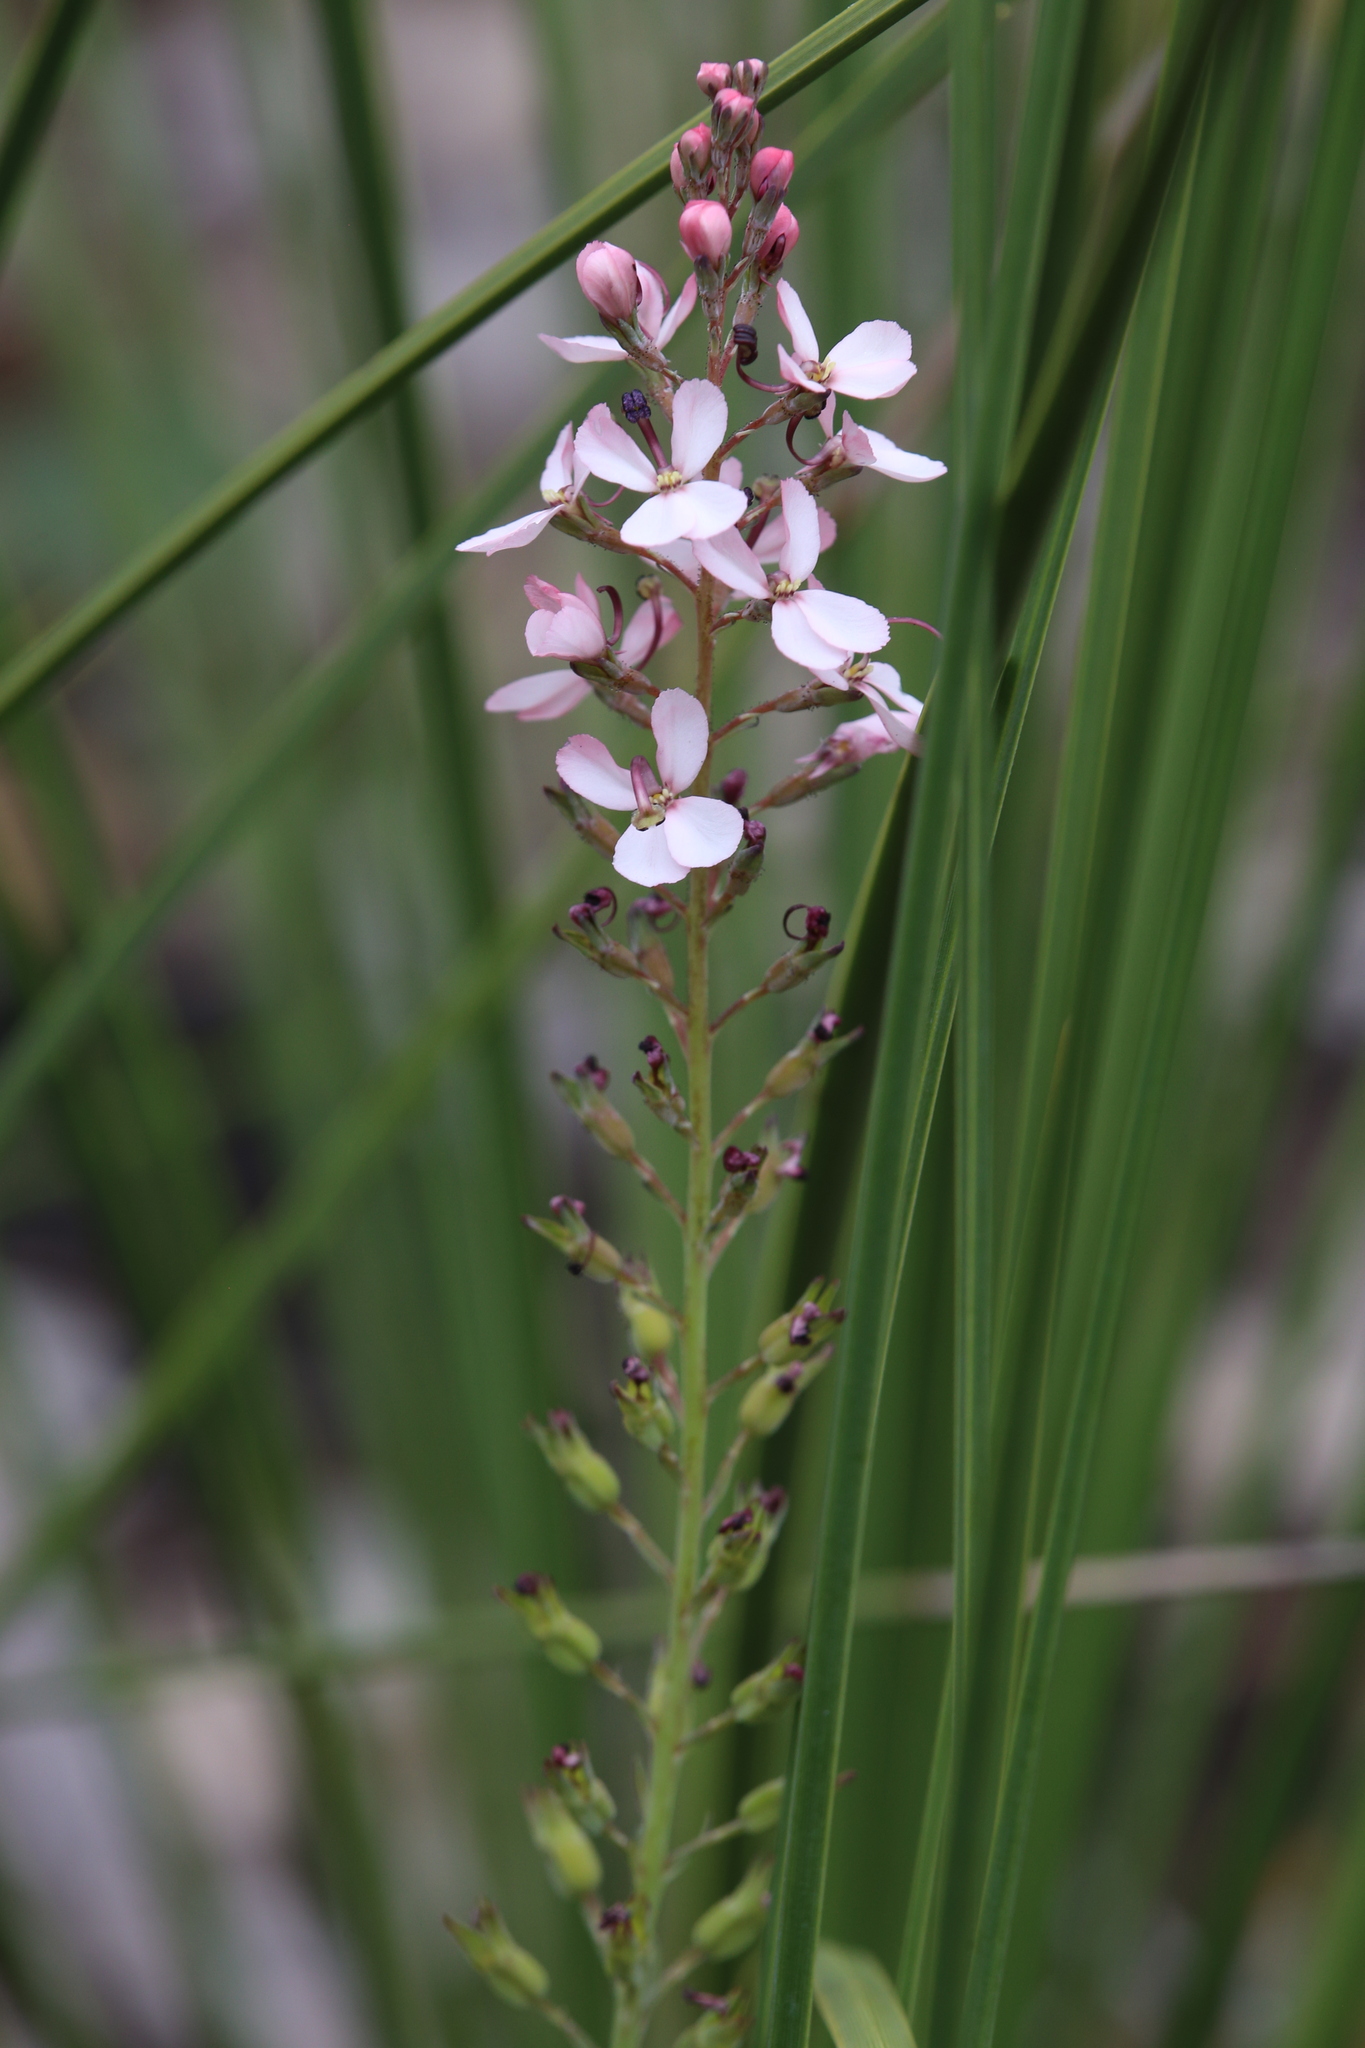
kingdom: Plantae
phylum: Tracheophyta
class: Magnoliopsida
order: Asterales
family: Stylidiaceae
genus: Stylidium
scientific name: Stylidium lowrieanum
